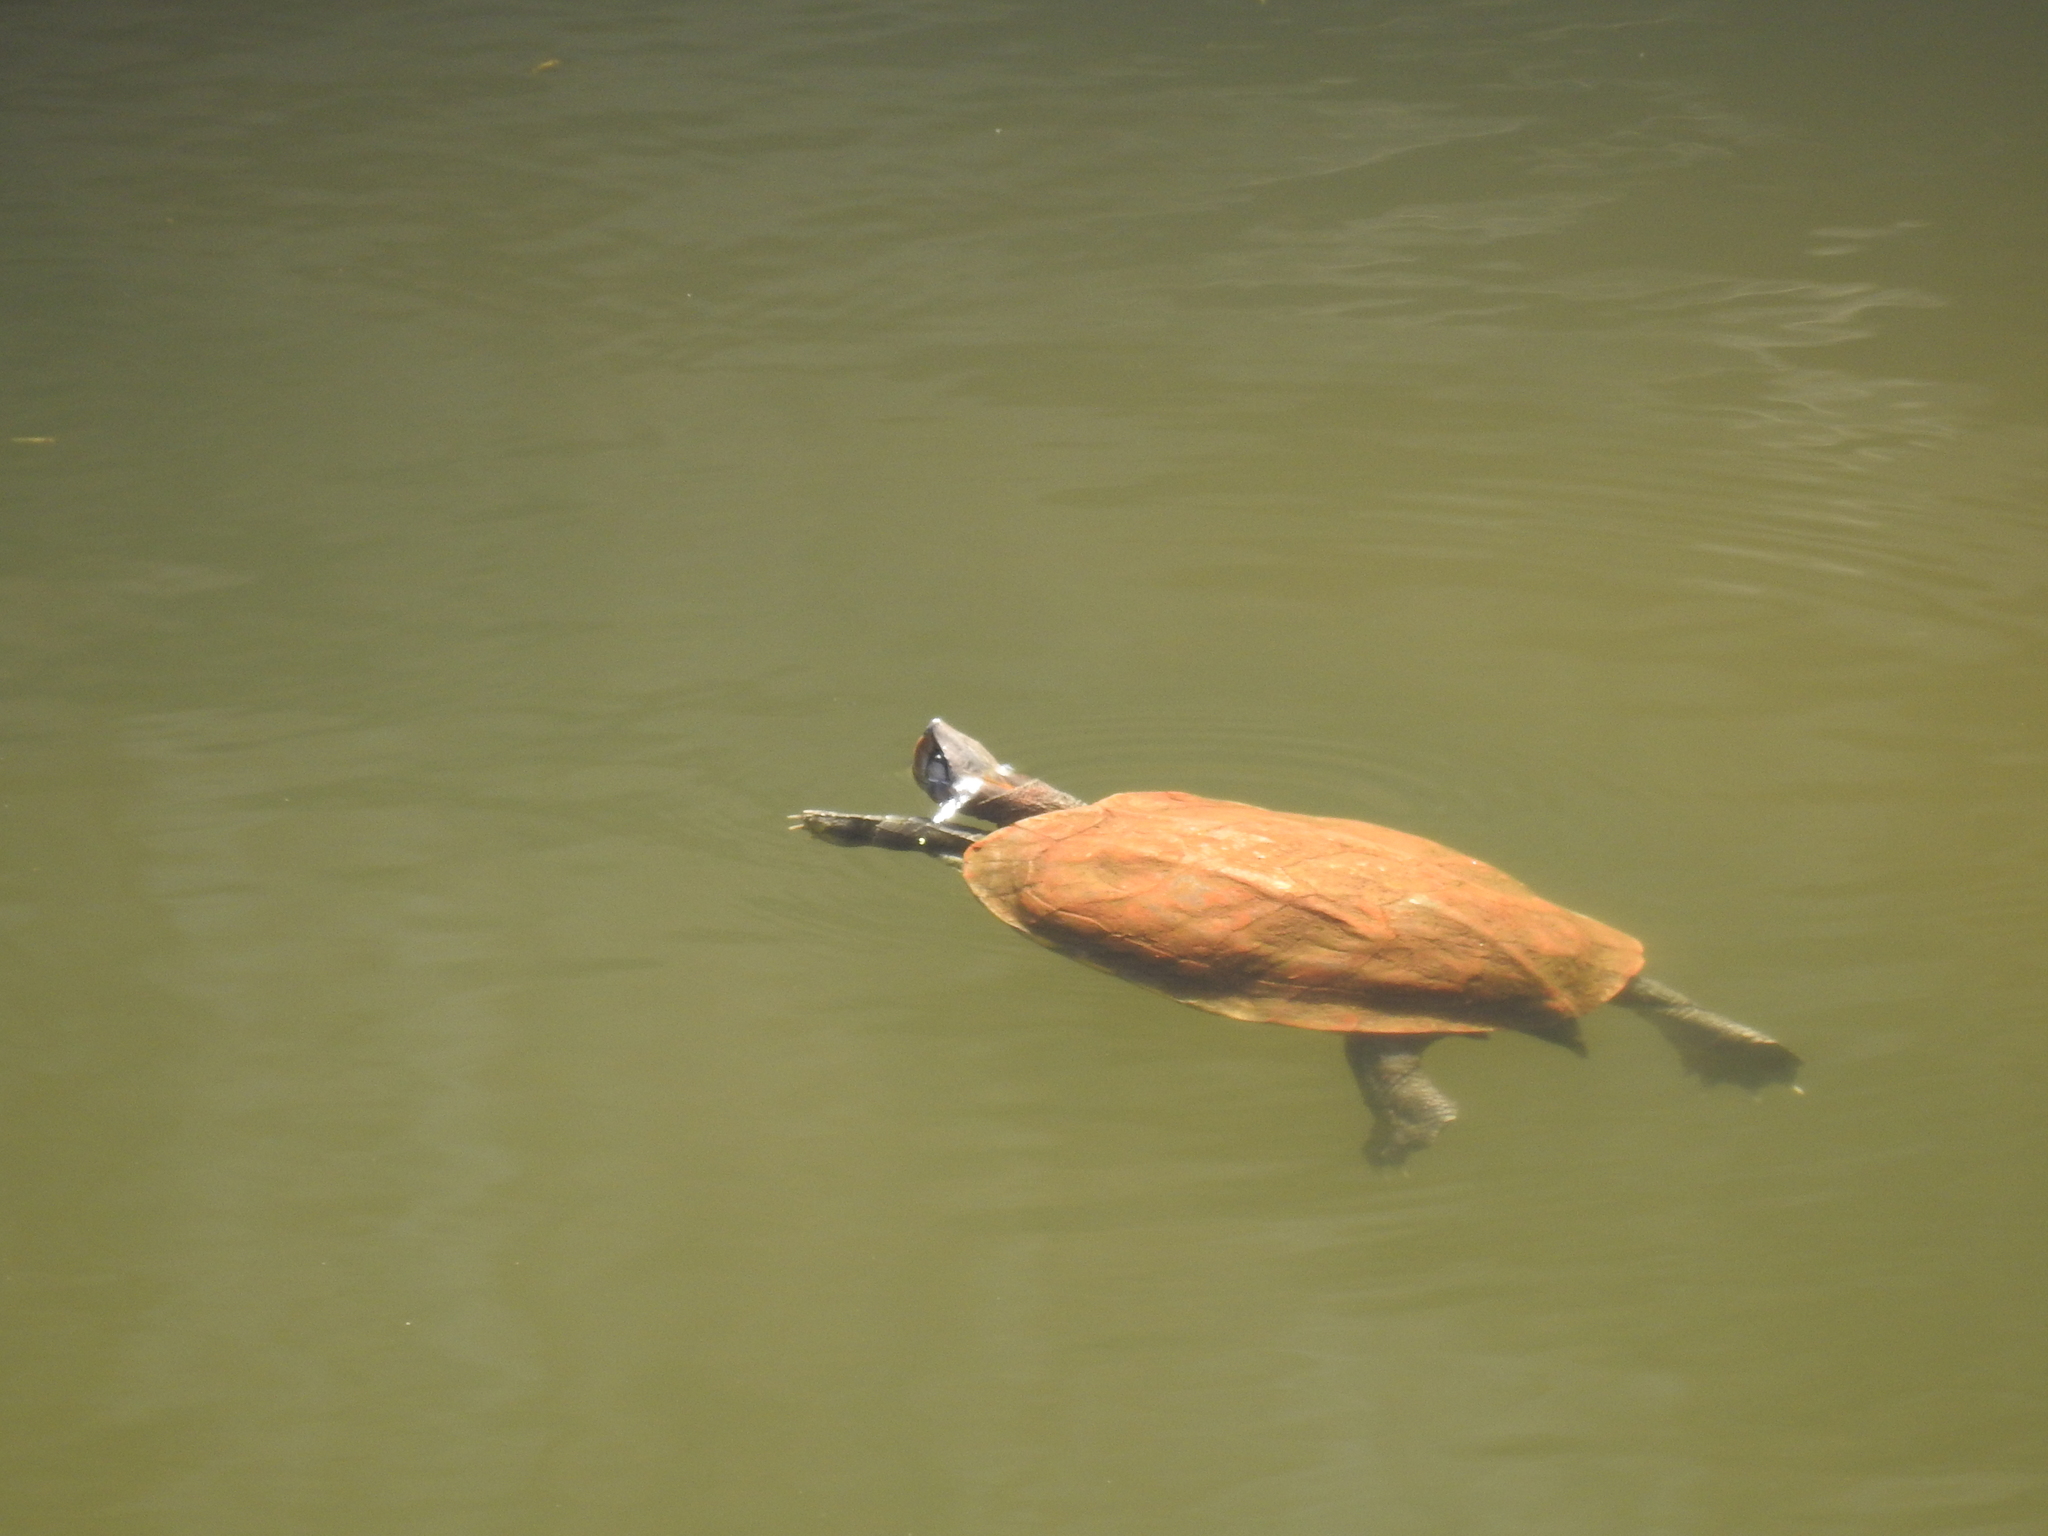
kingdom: Animalia
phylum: Chordata
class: Testudines
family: Geoemydidae
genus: Melanochelys
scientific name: Melanochelys trijuga
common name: Indian black turtle
